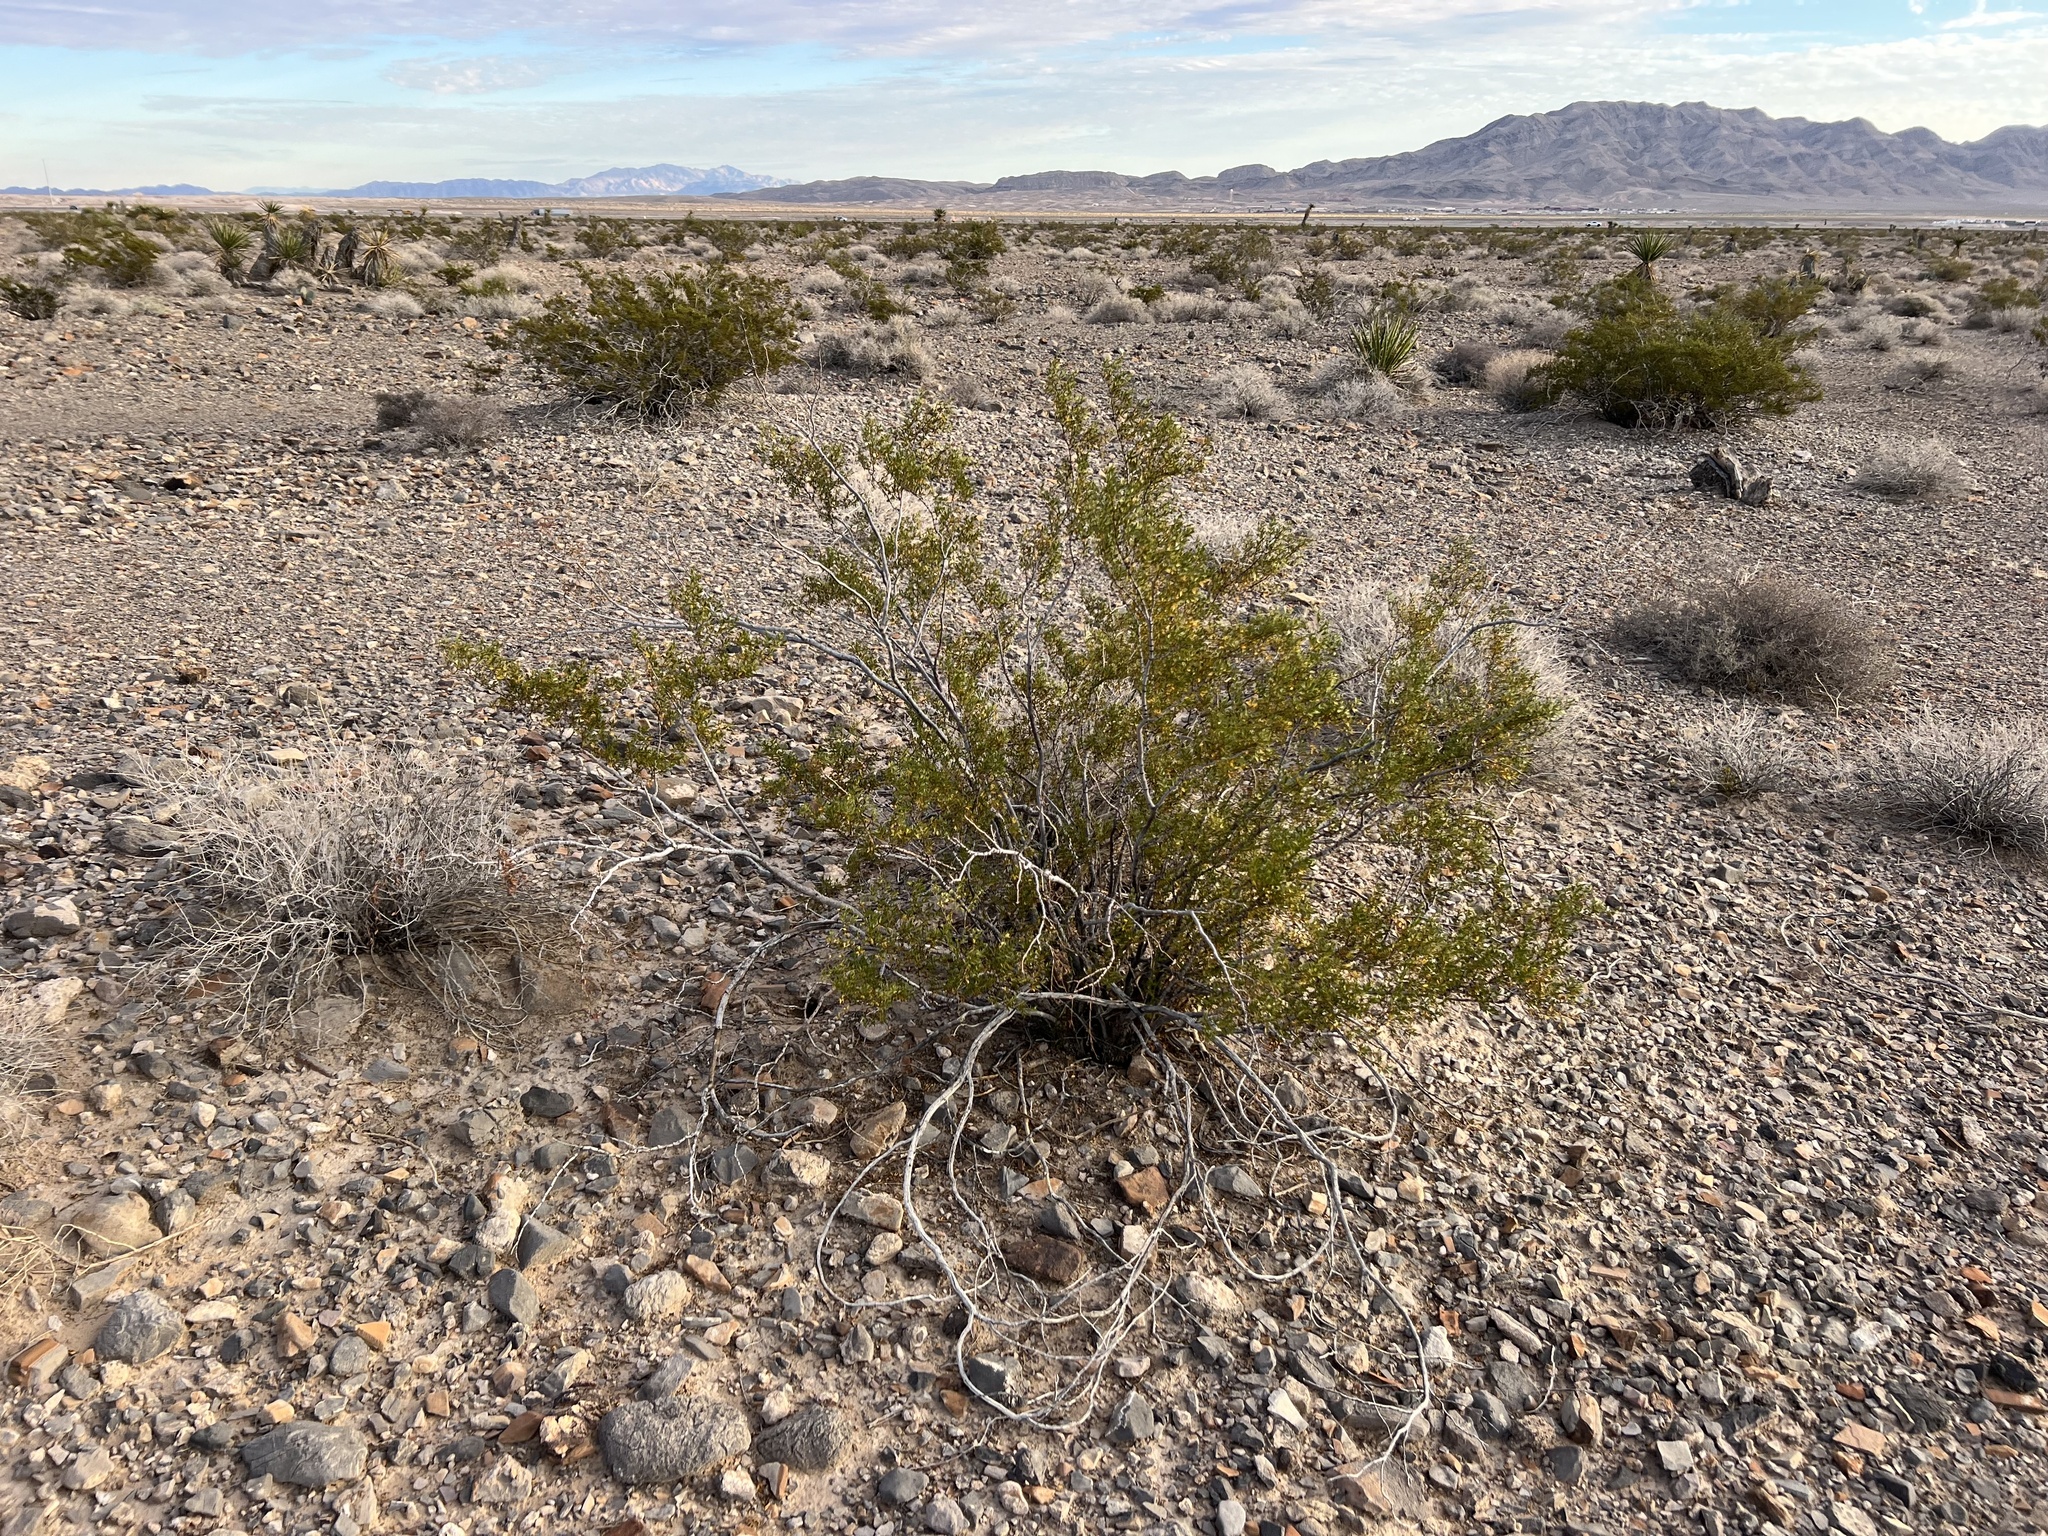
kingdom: Plantae
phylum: Tracheophyta
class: Magnoliopsida
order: Zygophyllales
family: Zygophyllaceae
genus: Larrea
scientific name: Larrea tridentata
